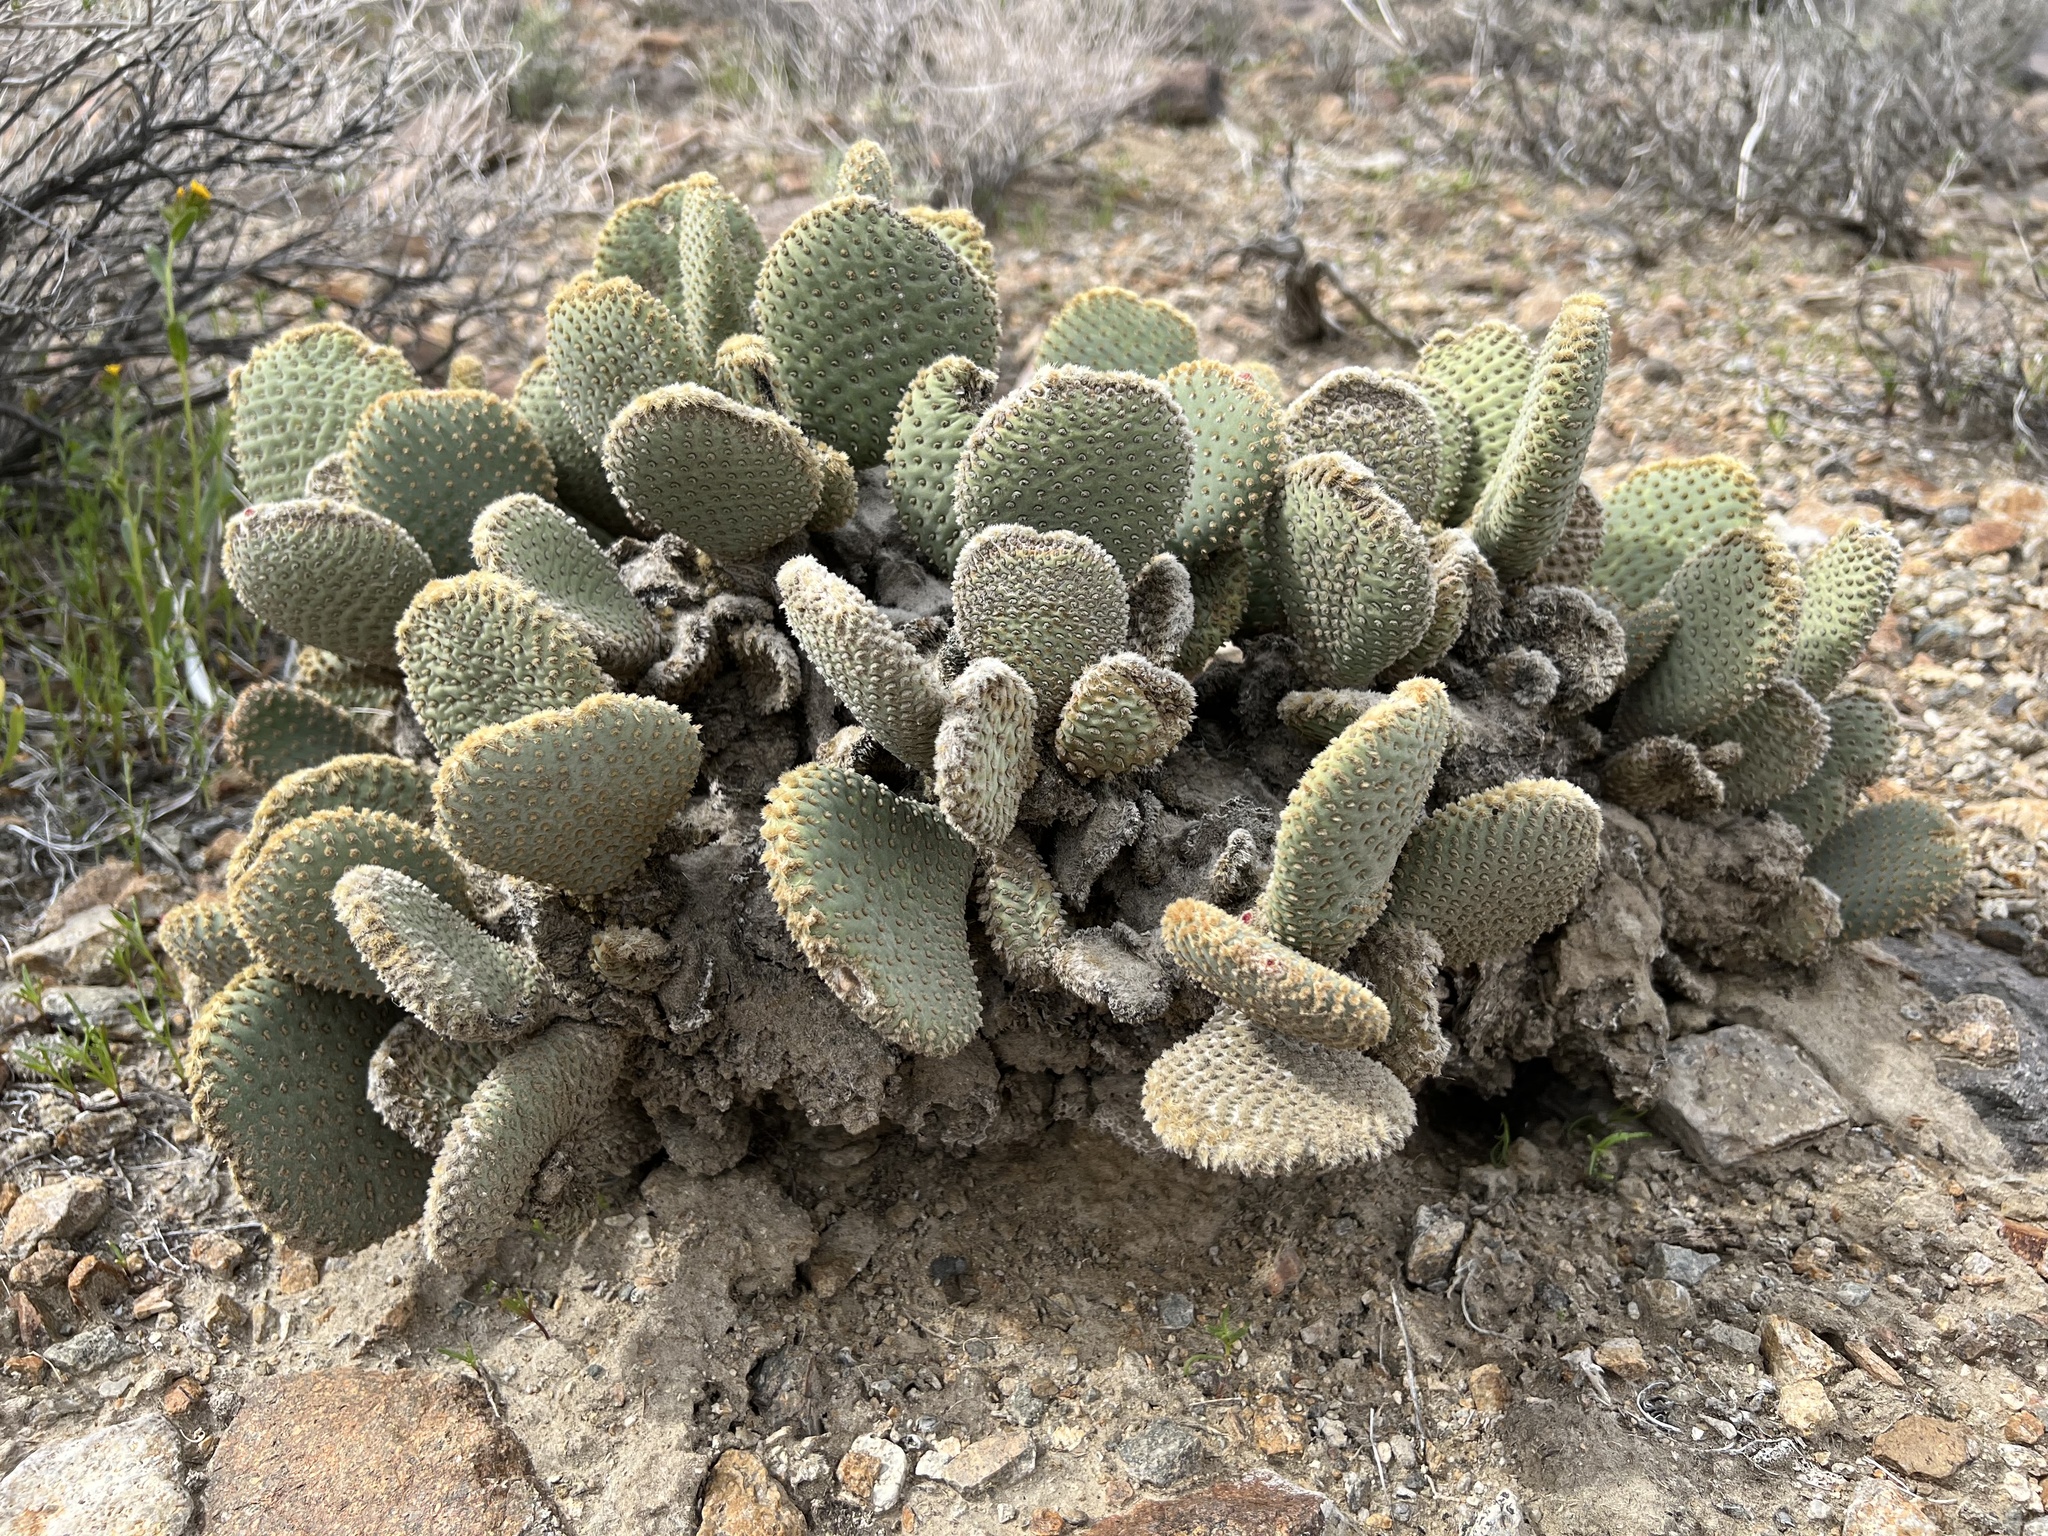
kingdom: Plantae
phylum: Tracheophyta
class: Magnoliopsida
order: Caryophyllales
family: Cactaceae
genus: Opuntia
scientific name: Opuntia basilaris
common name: Beavertail prickly-pear
